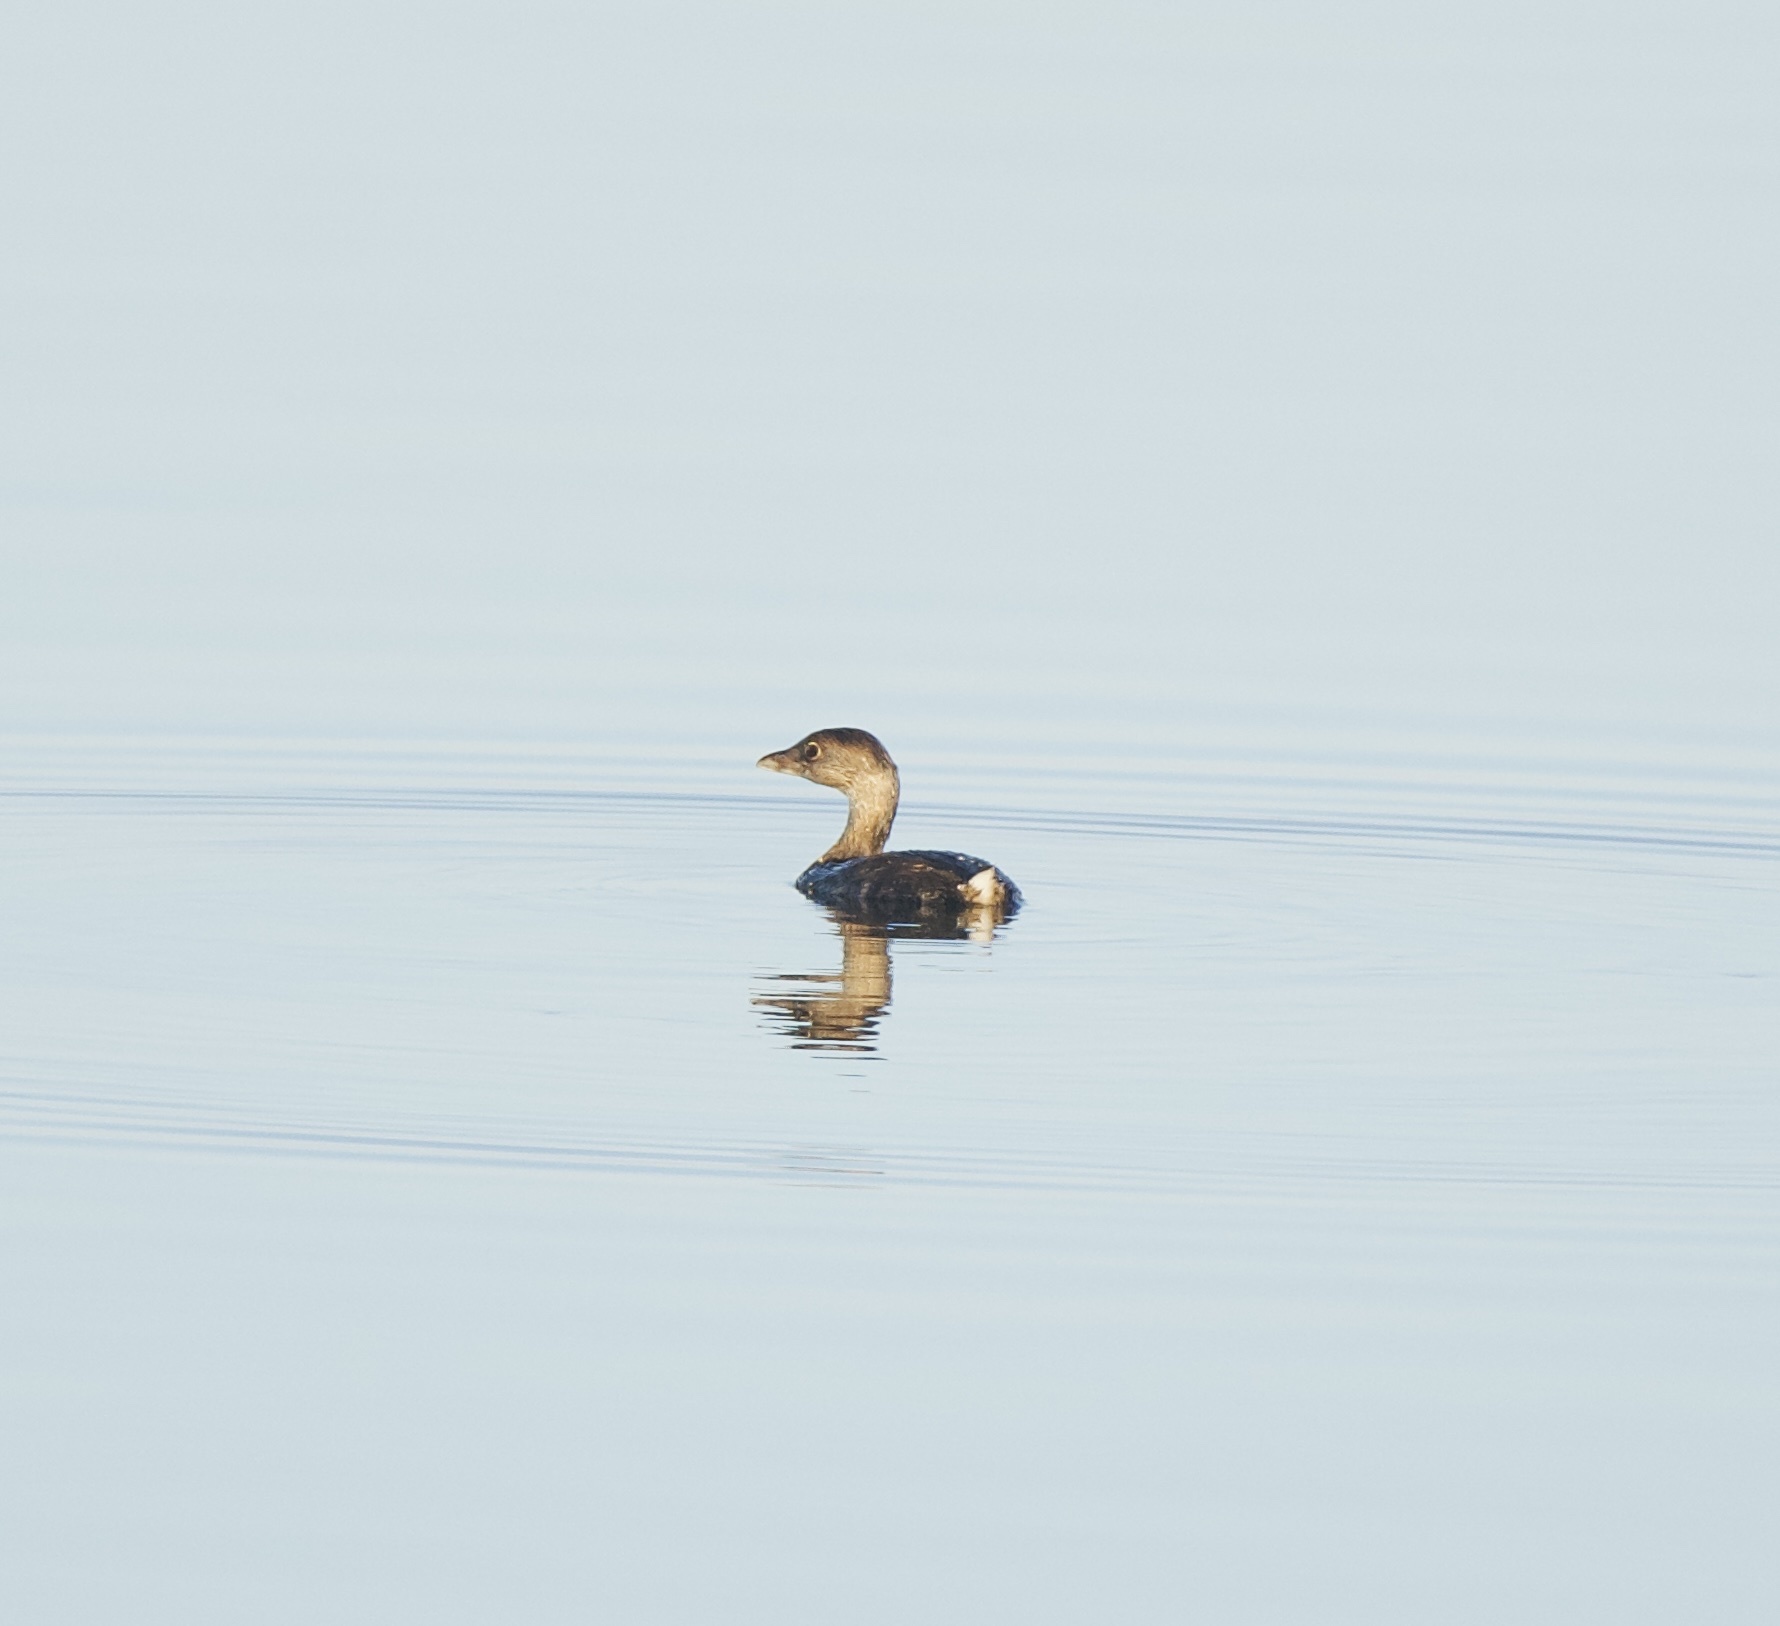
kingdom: Animalia
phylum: Chordata
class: Aves
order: Podicipediformes
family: Podicipedidae
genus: Podilymbus
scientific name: Podilymbus podiceps
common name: Pied-billed grebe
